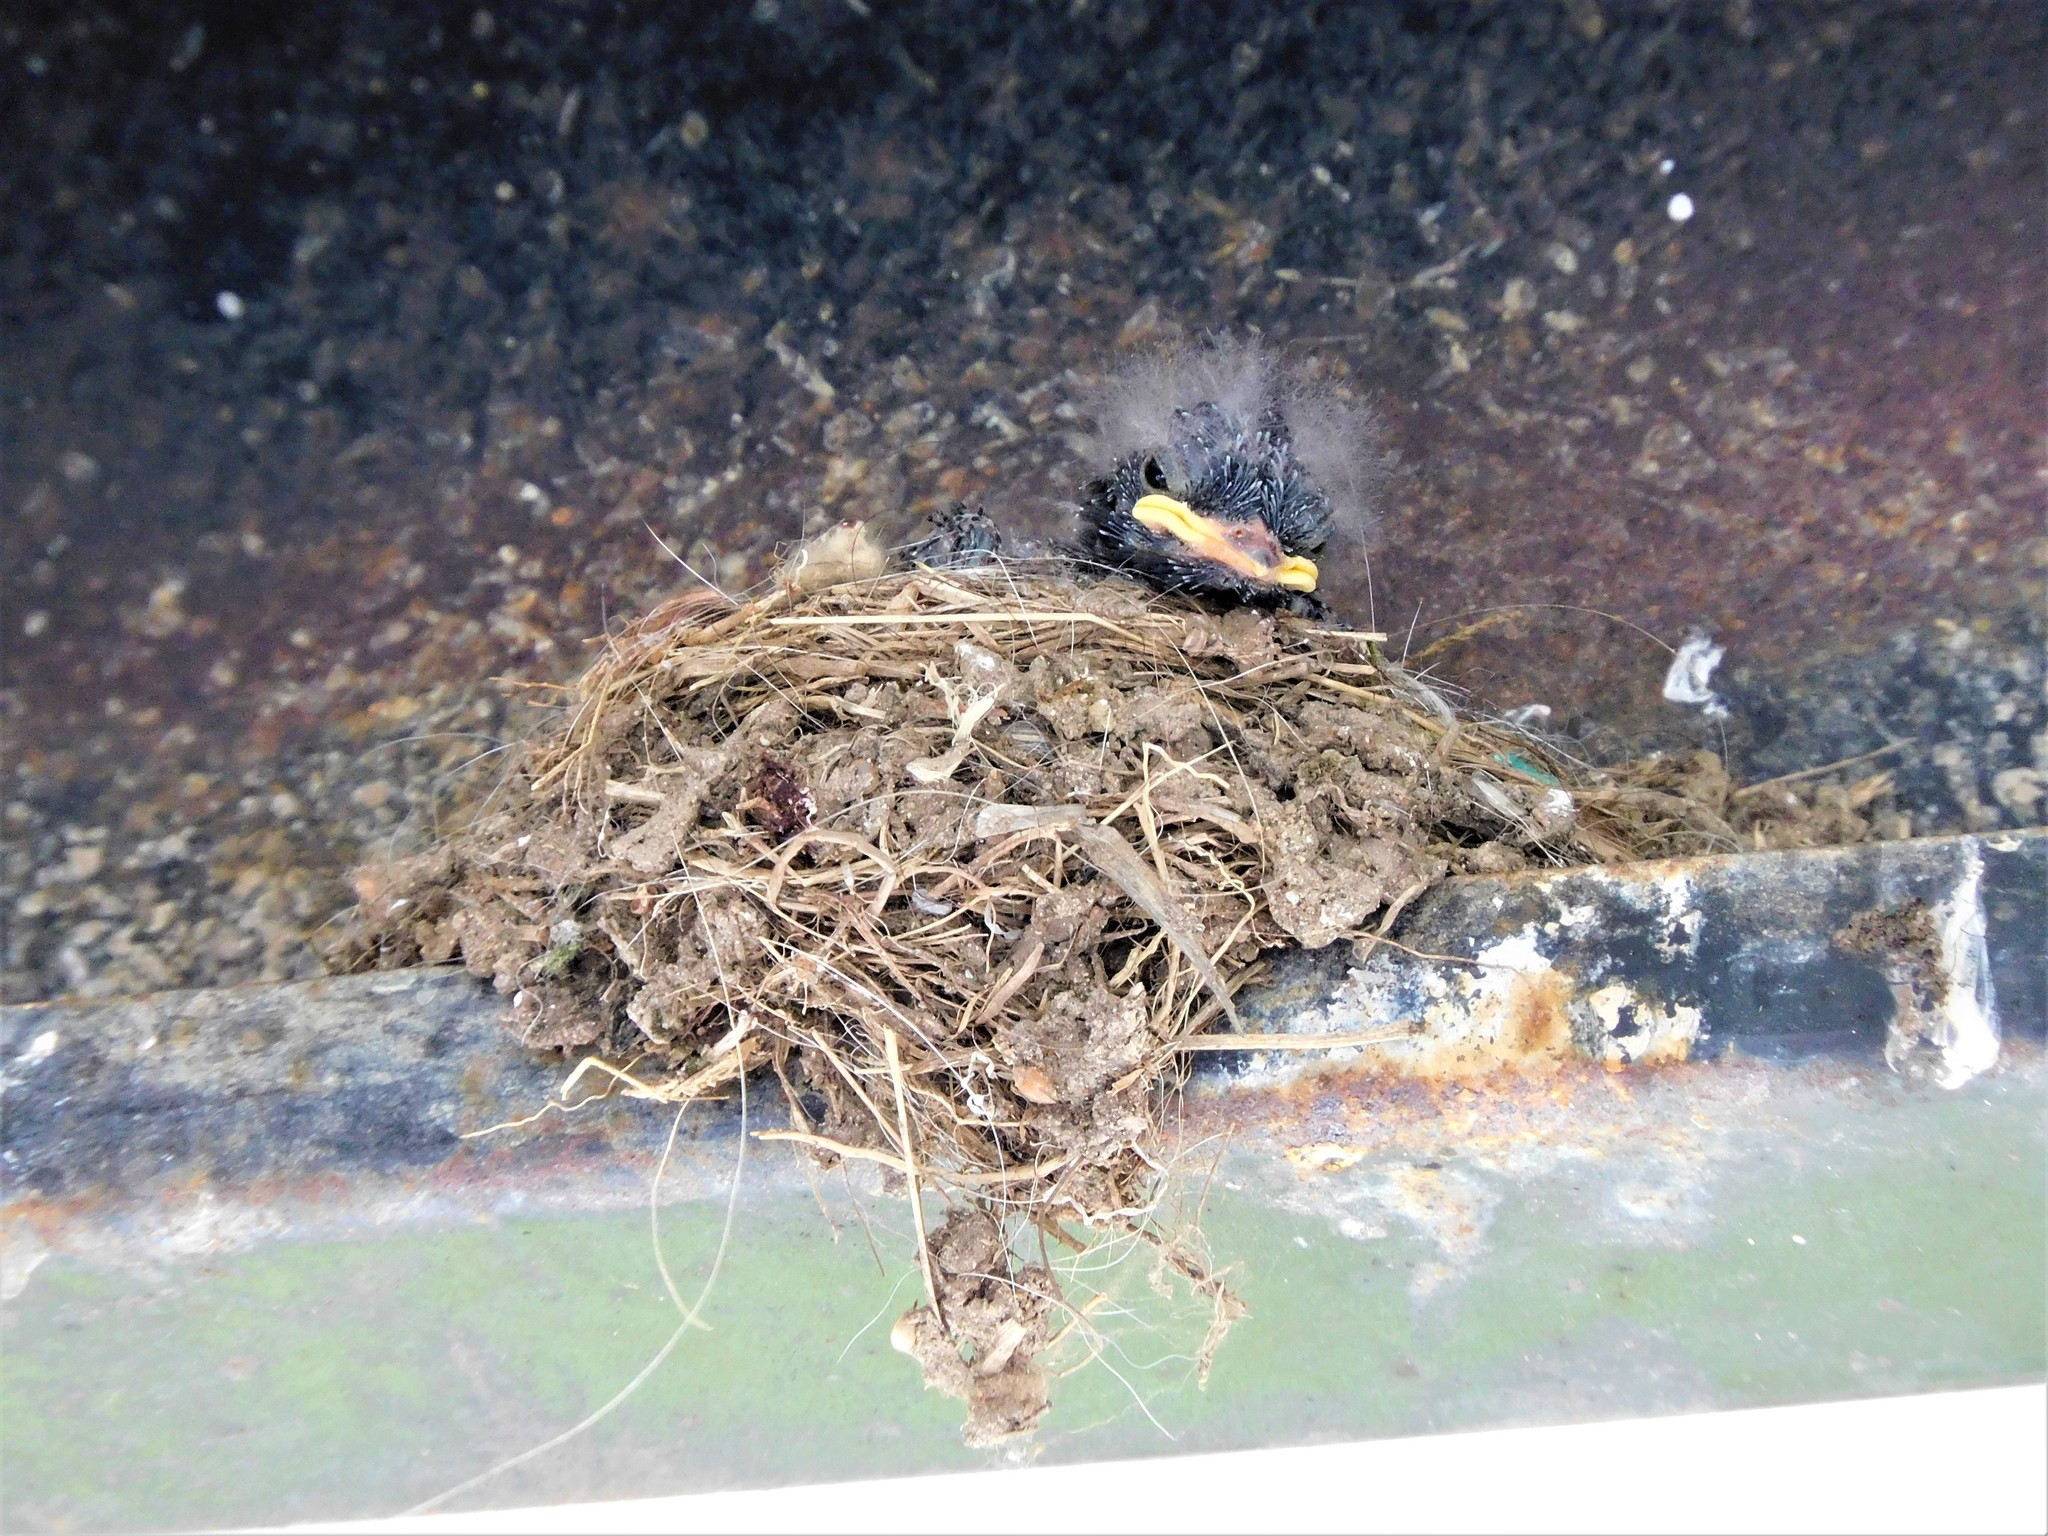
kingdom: Animalia
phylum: Chordata
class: Aves
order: Passeriformes
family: Tyrannidae
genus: Sayornis
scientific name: Sayornis nigricans
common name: Black phoebe
